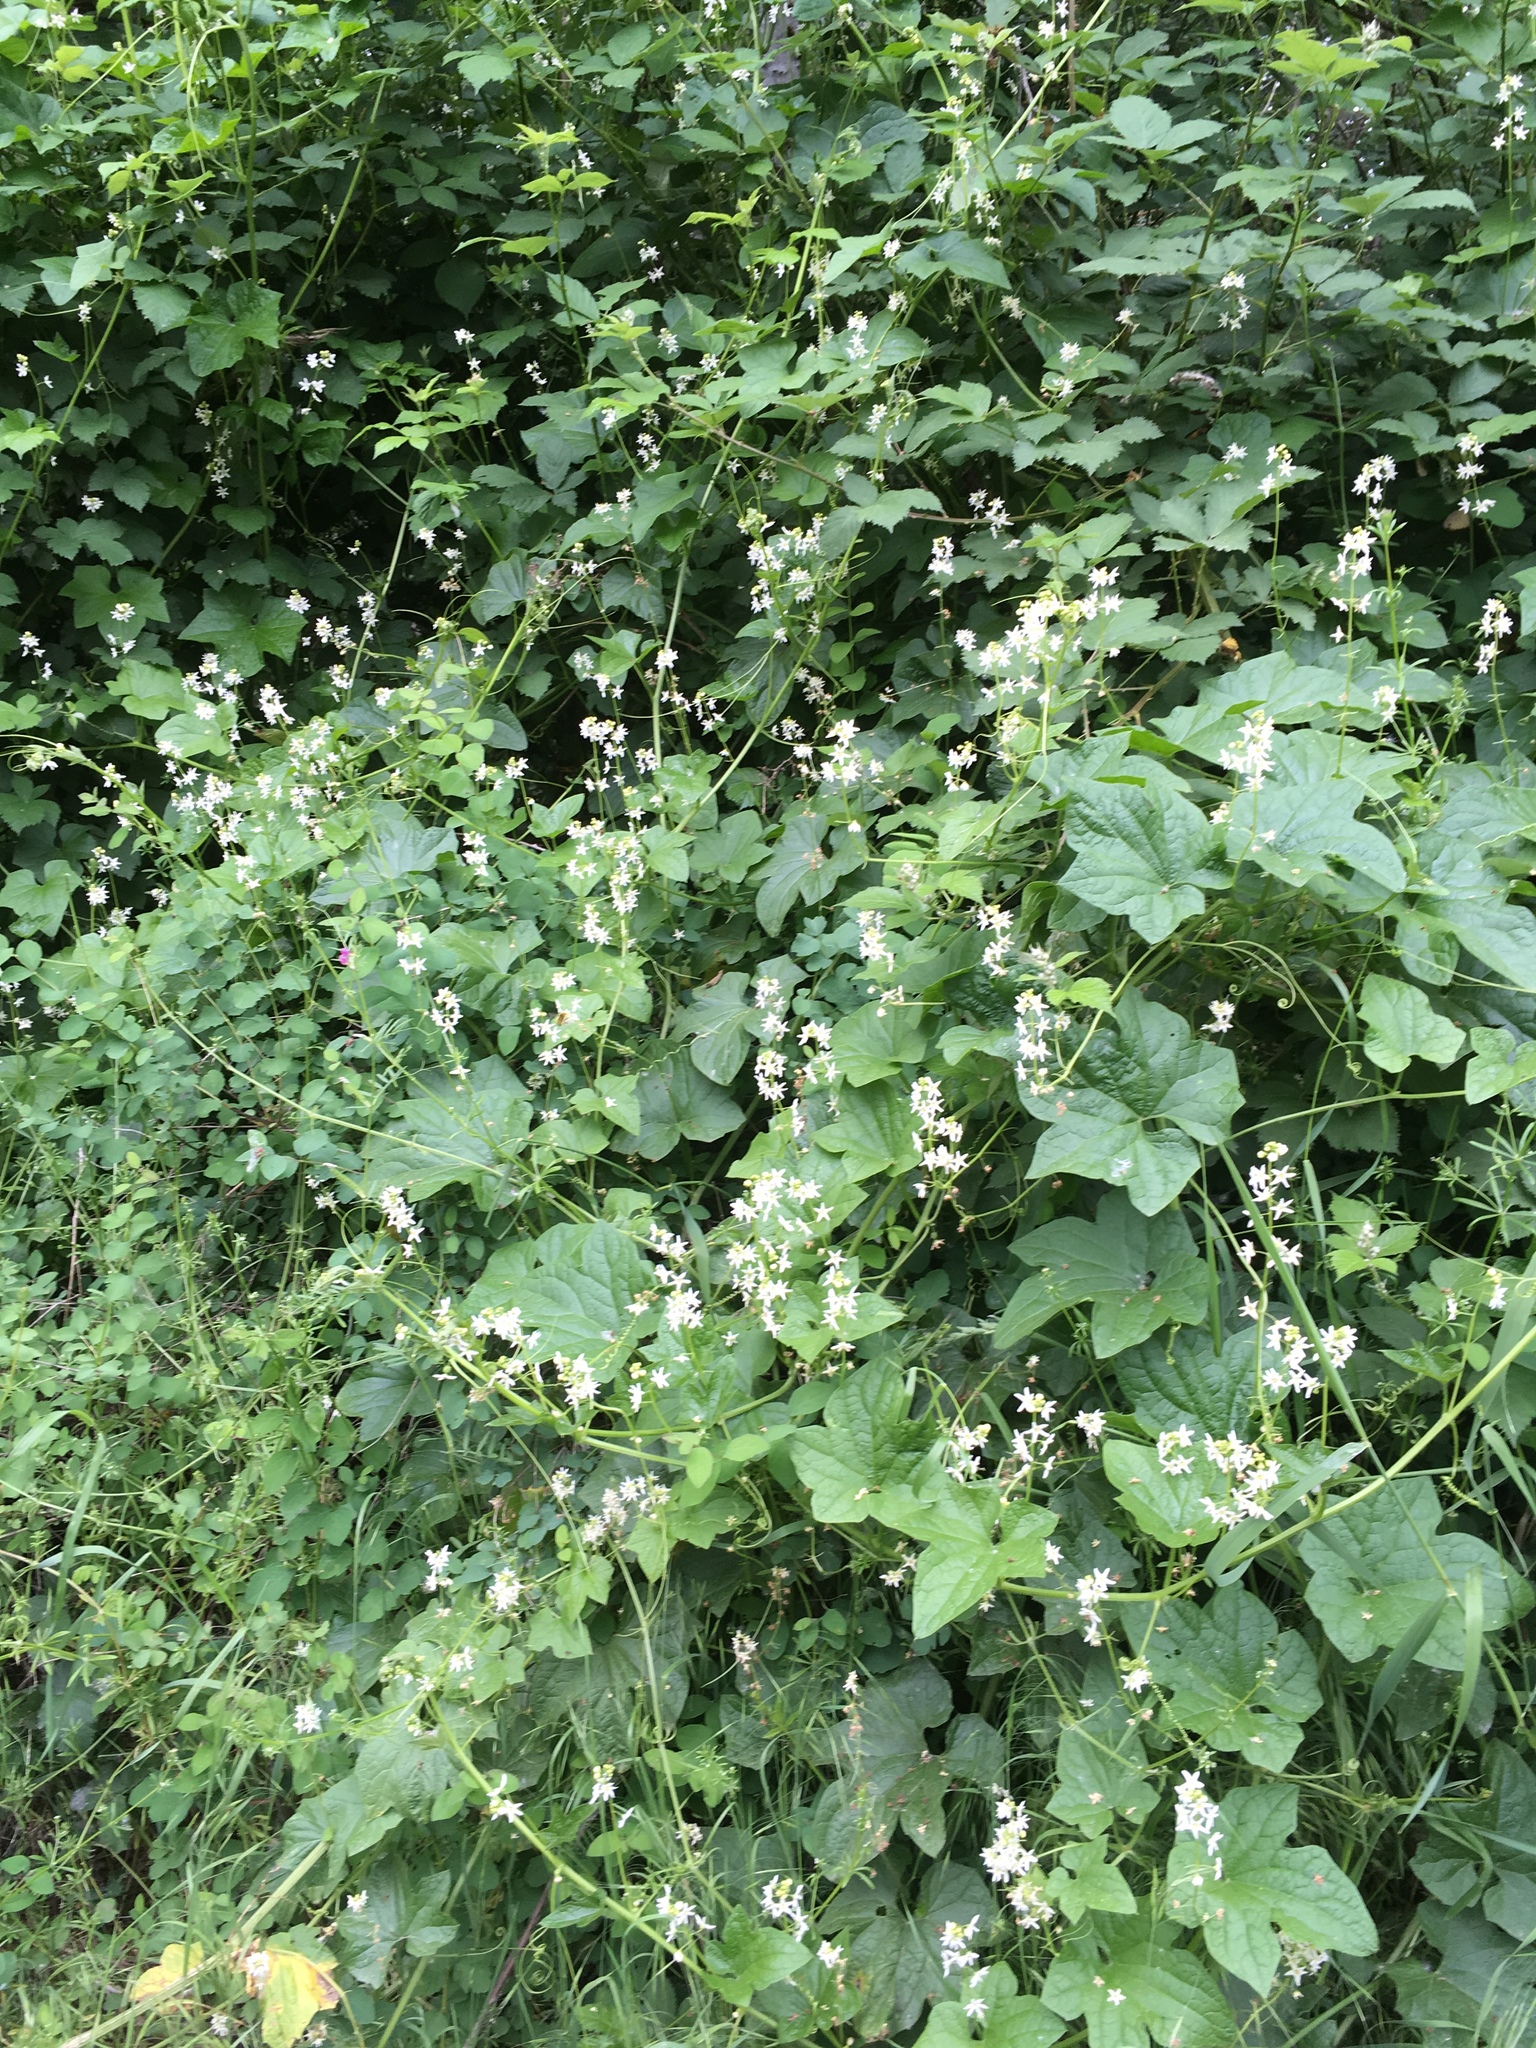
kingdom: Plantae
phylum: Tracheophyta
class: Magnoliopsida
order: Cucurbitales
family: Cucurbitaceae
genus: Marah
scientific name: Marah oregana
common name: Coastal manroot
